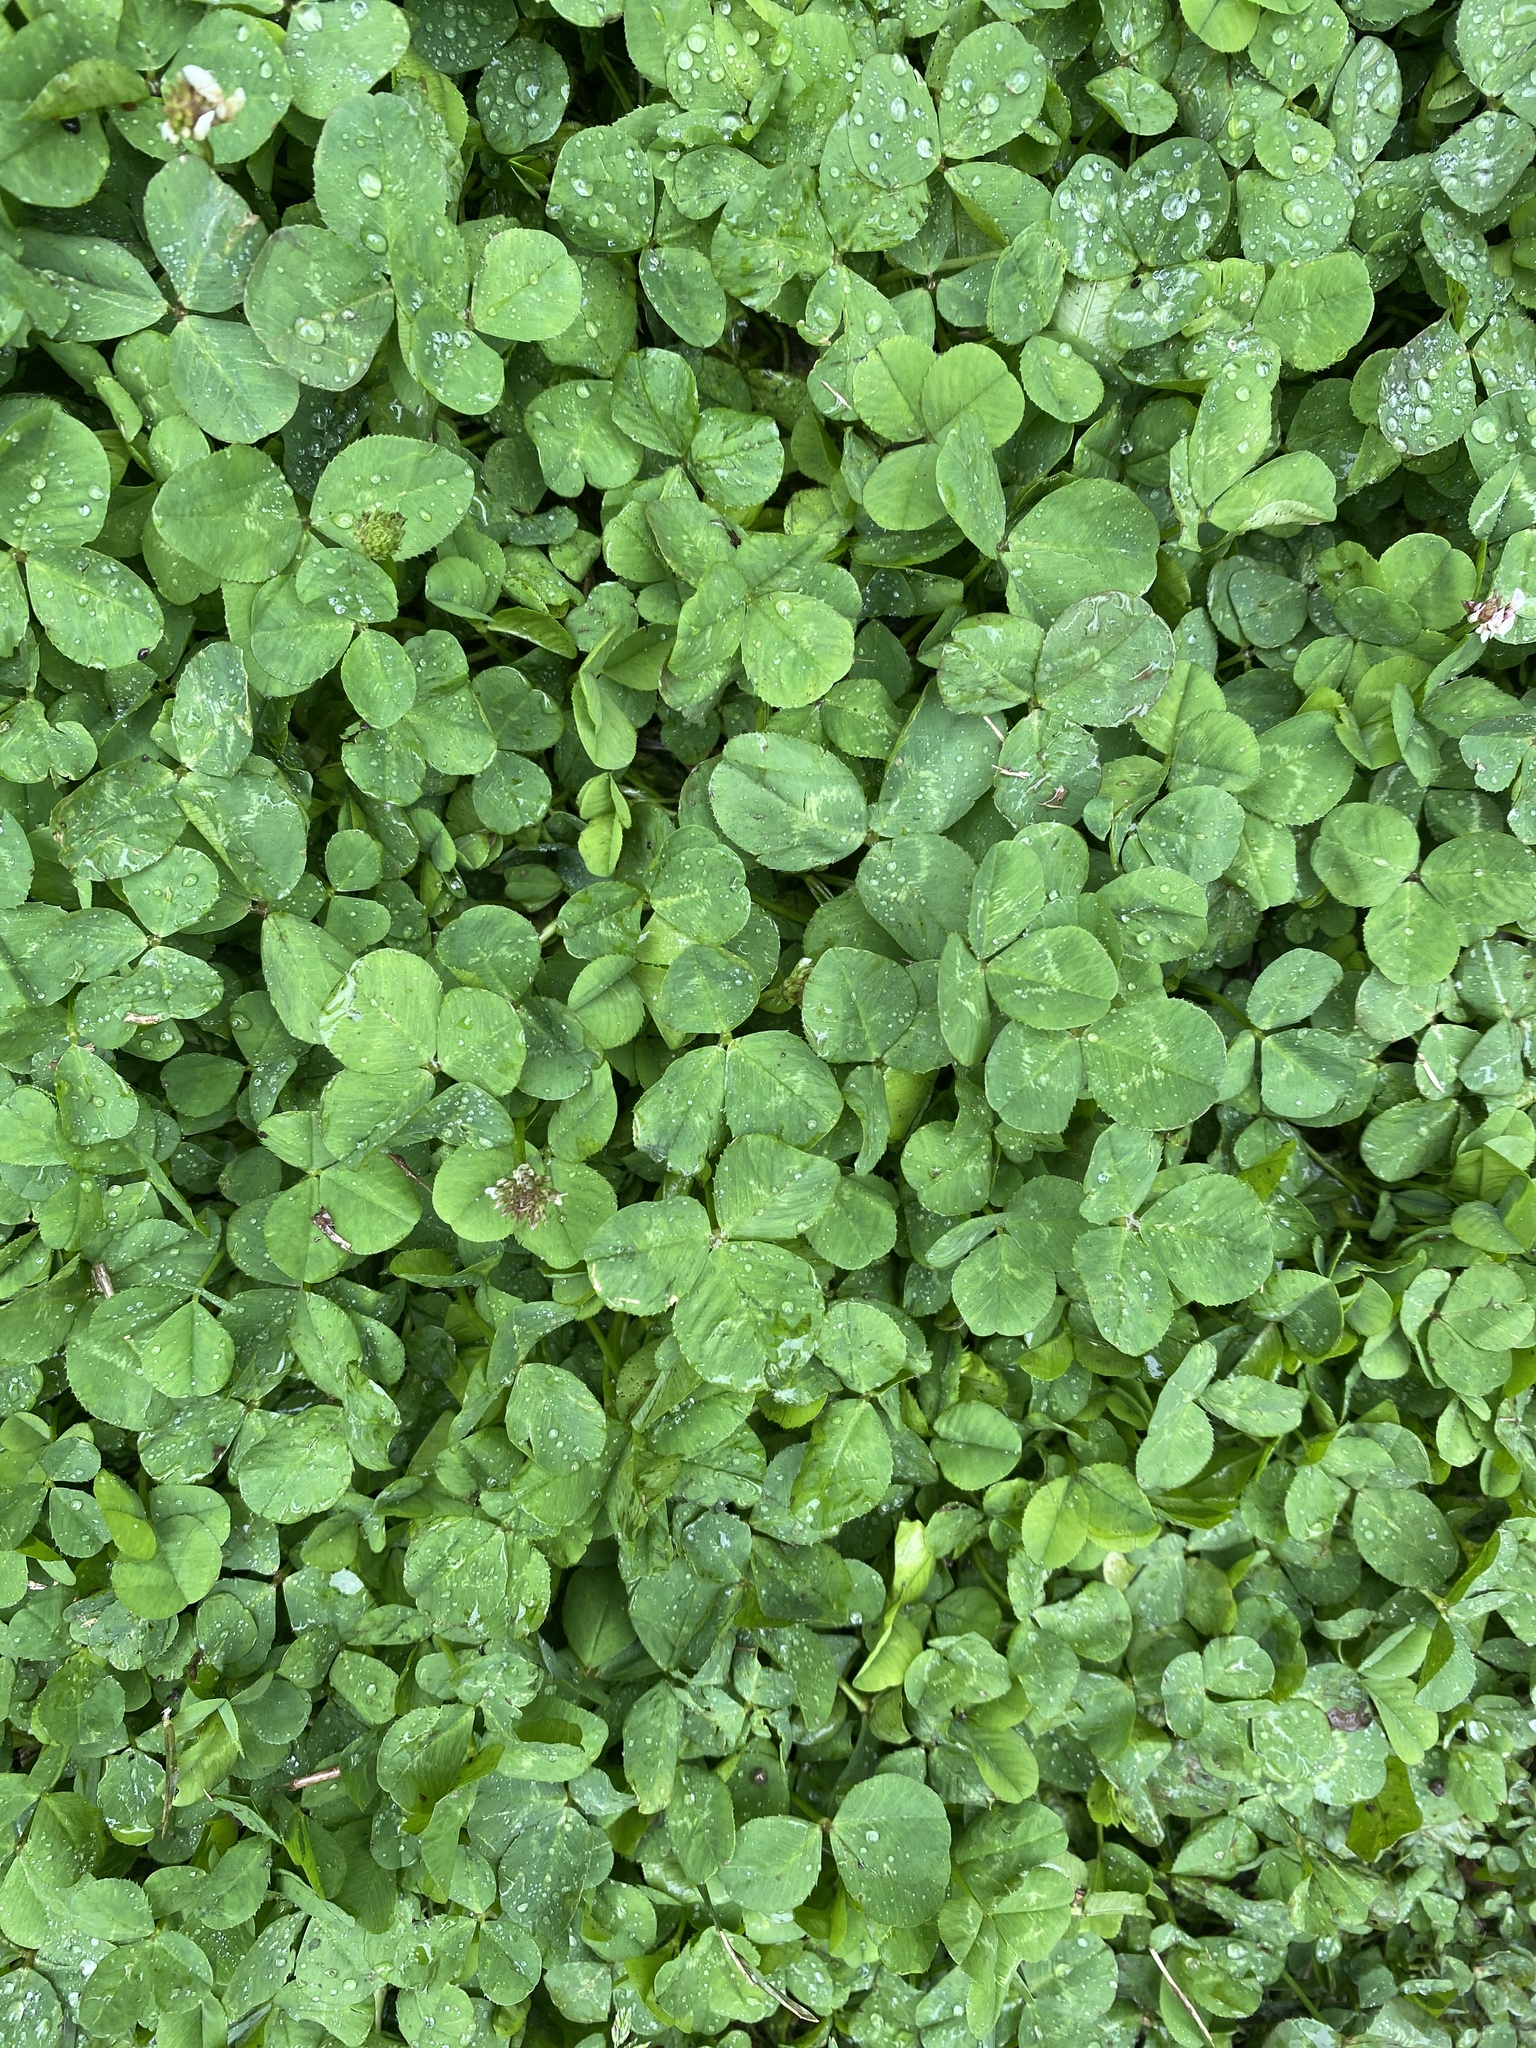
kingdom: Plantae
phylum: Tracheophyta
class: Magnoliopsida
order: Fabales
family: Fabaceae
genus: Trifolium
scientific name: Trifolium repens
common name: White clover
